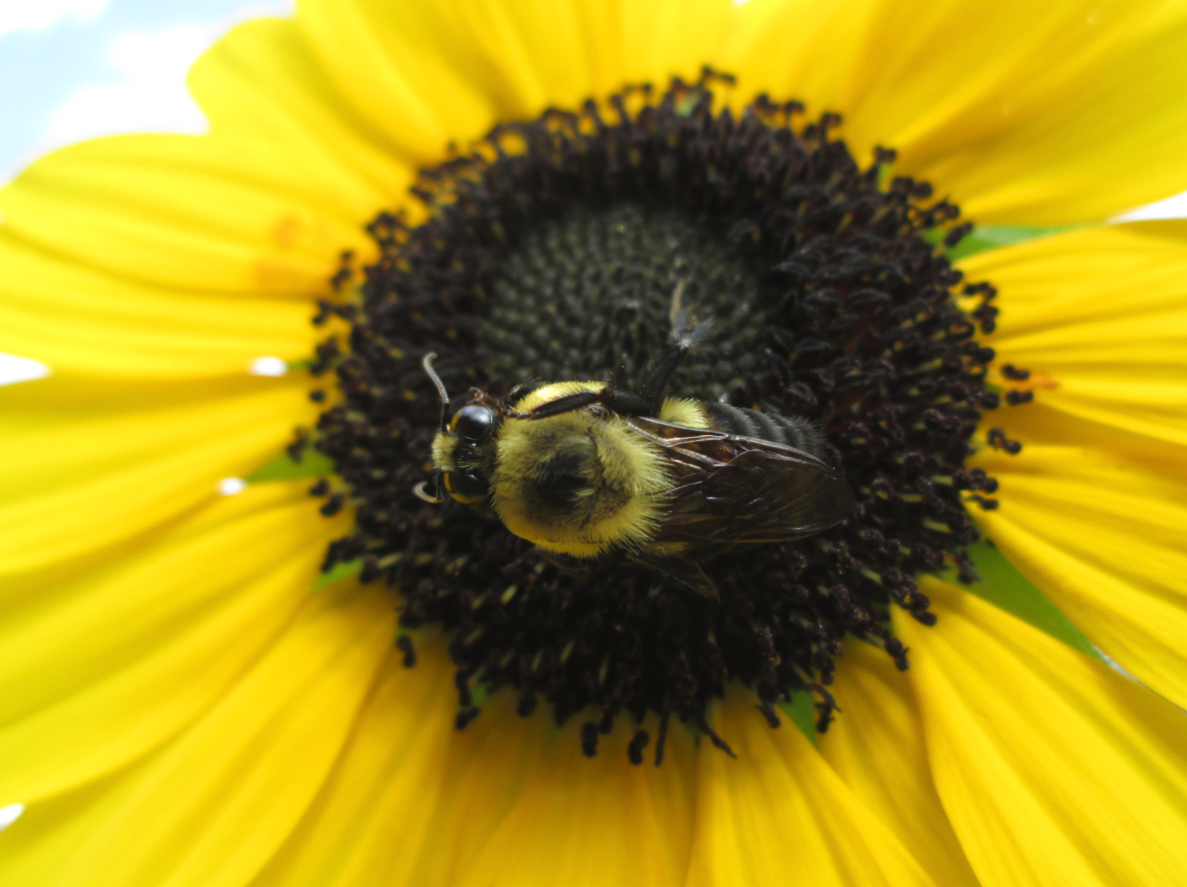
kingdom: Animalia
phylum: Arthropoda
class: Insecta
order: Hymenoptera
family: Apidae
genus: Bombus
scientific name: Bombus griseocollis
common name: Brown-belted bumble bee
